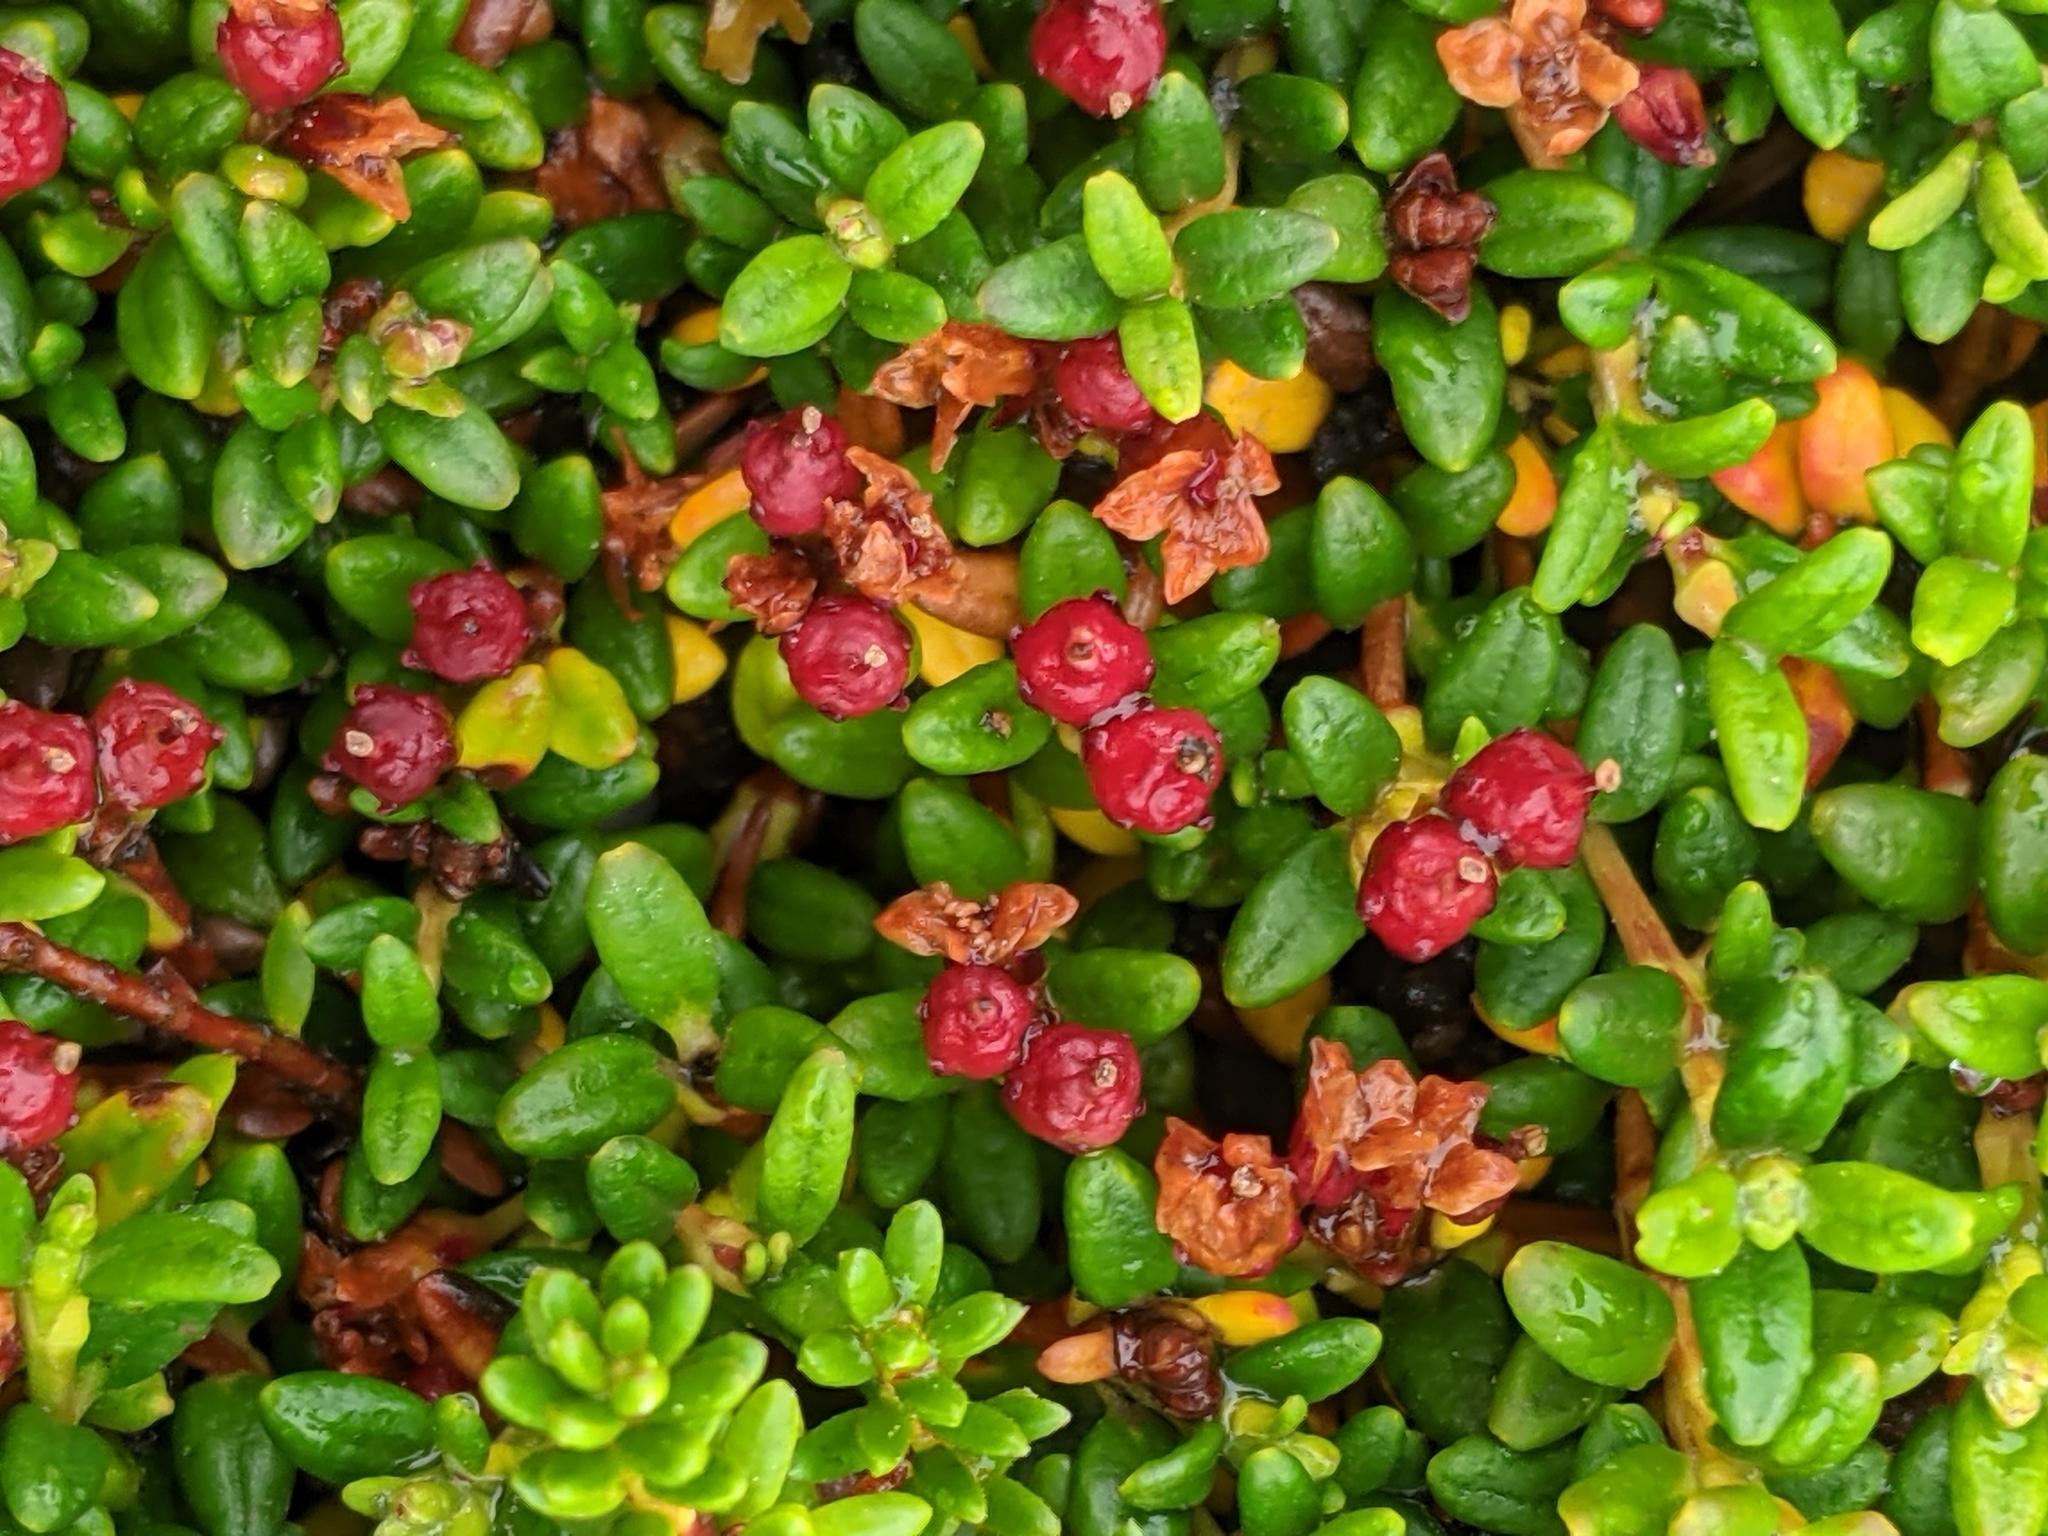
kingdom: Plantae
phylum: Tracheophyta
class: Magnoliopsida
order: Ericales
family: Ericaceae
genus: Kalmia
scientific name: Kalmia procumbens
